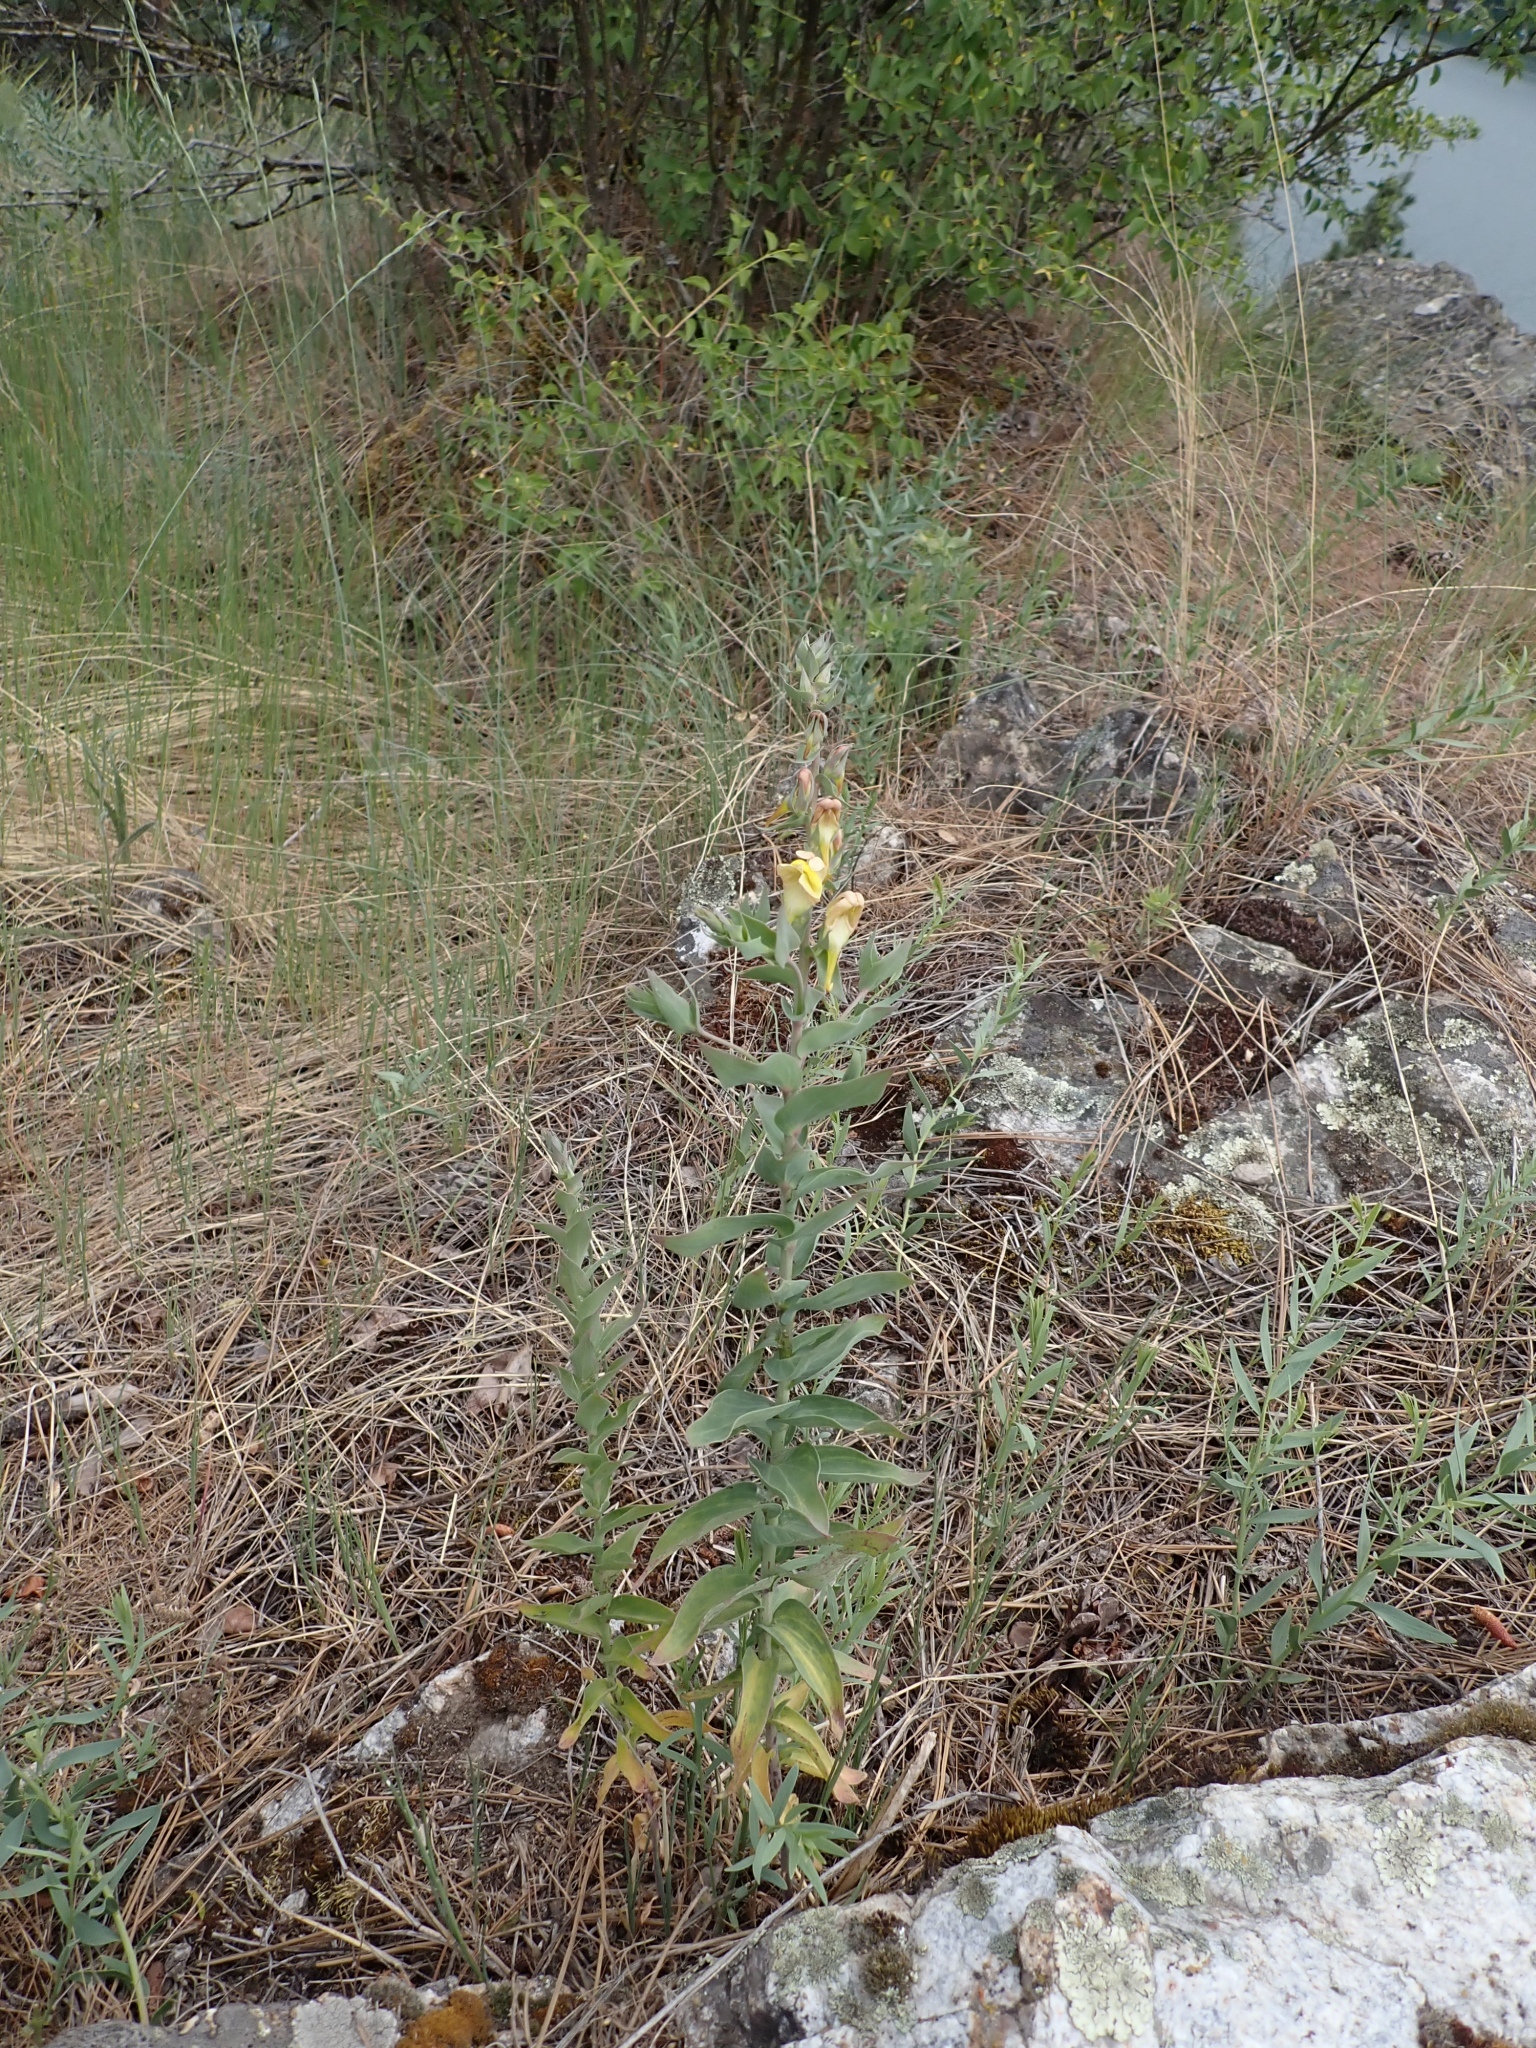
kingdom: Plantae
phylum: Tracheophyta
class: Magnoliopsida
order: Lamiales
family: Plantaginaceae
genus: Linaria
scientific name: Linaria dalmatica
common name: Dalmatian toadflax
